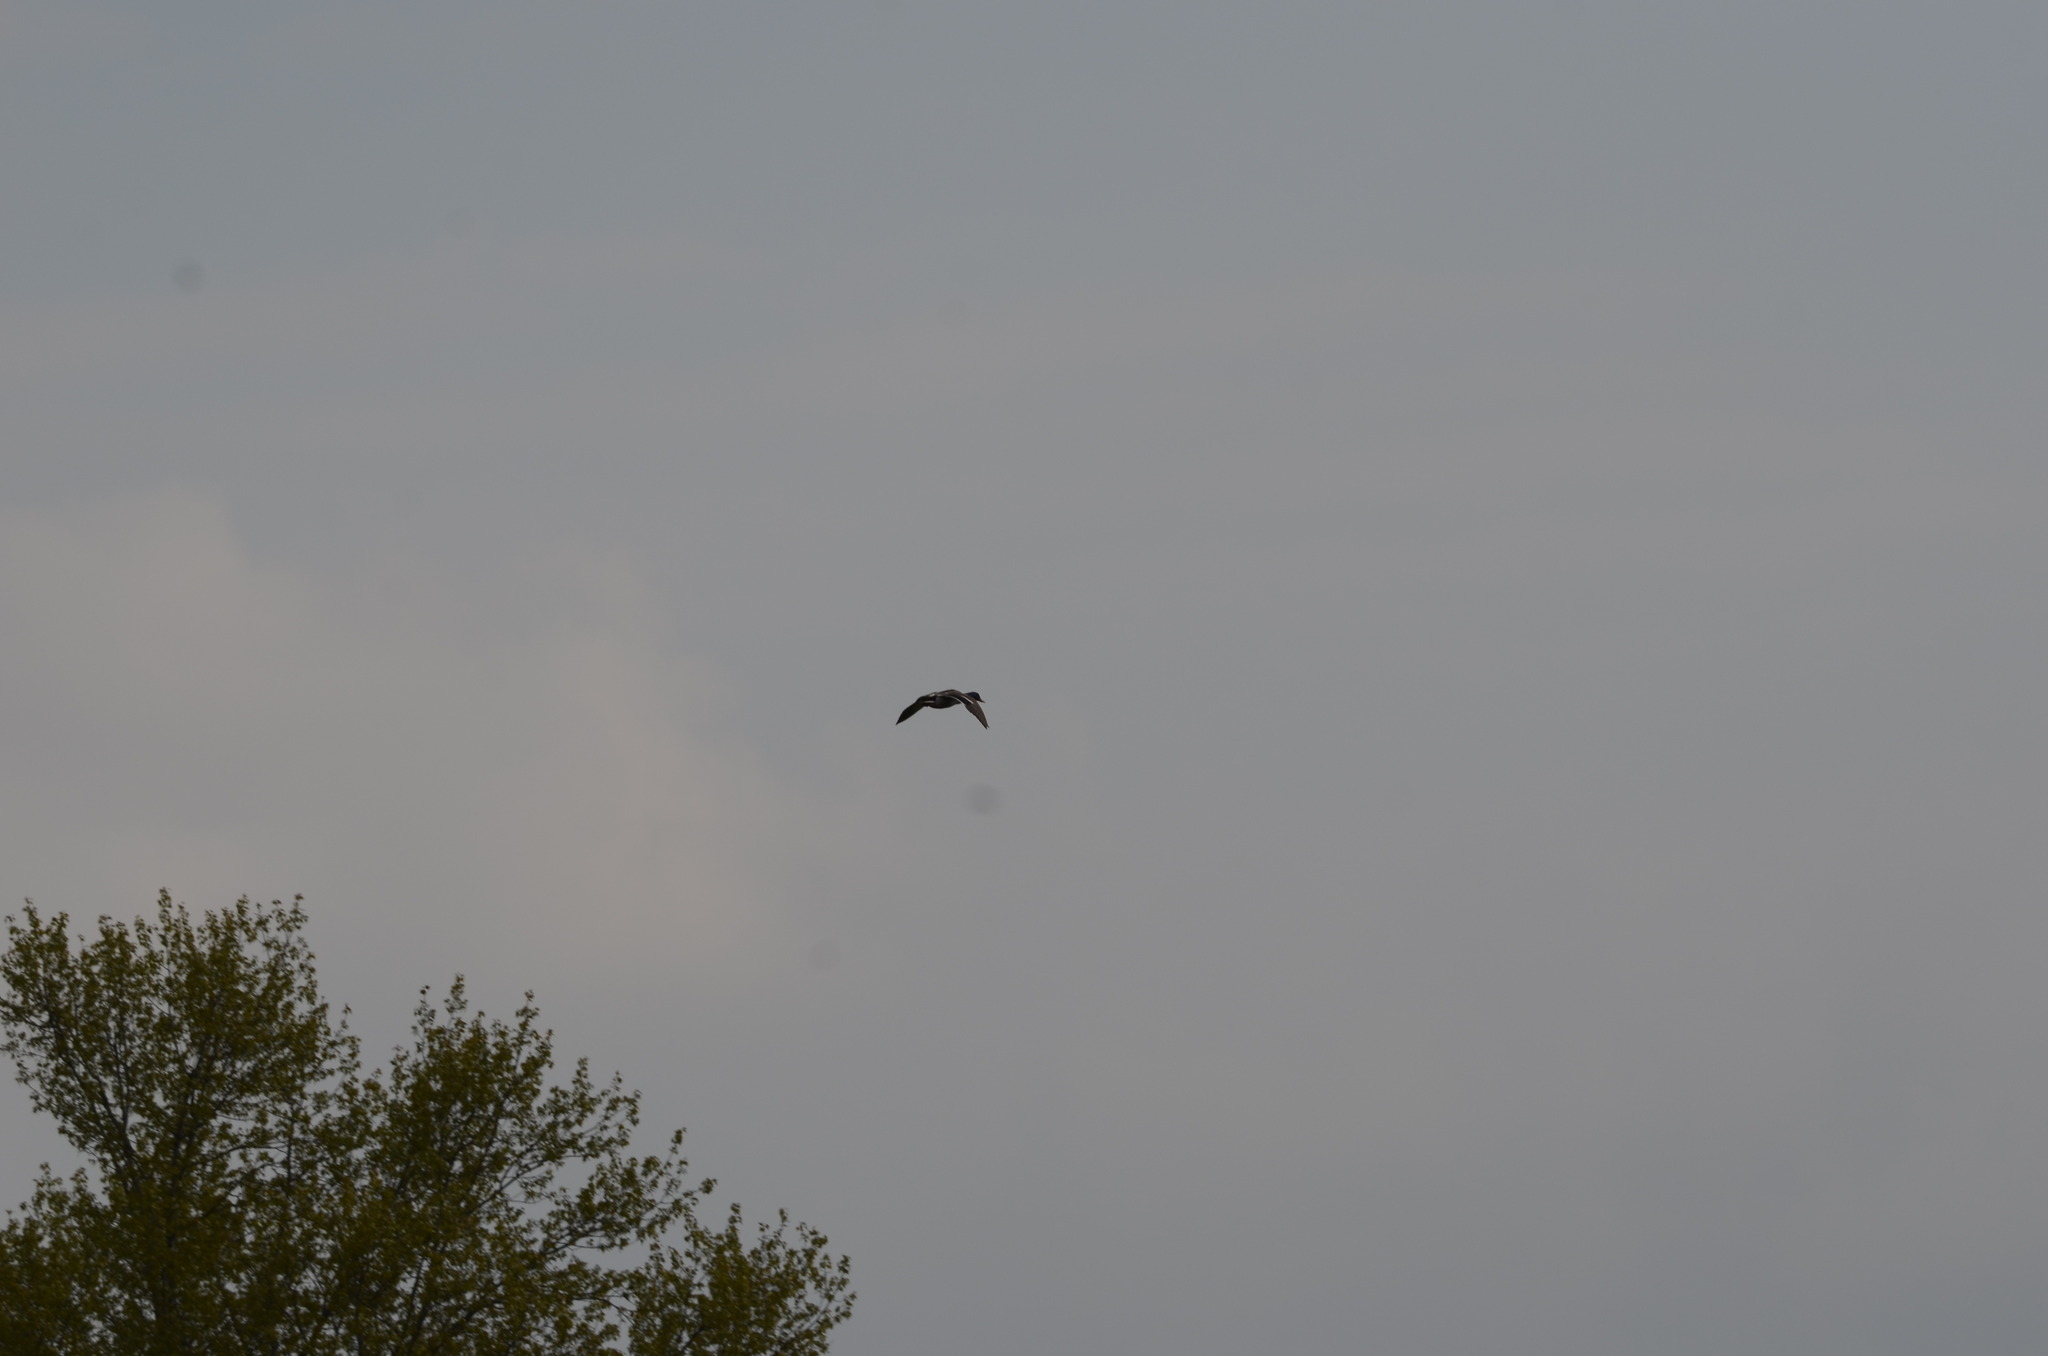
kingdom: Animalia
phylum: Chordata
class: Aves
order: Anseriformes
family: Anatidae
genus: Anas
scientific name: Anas platyrhynchos
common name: Mallard
